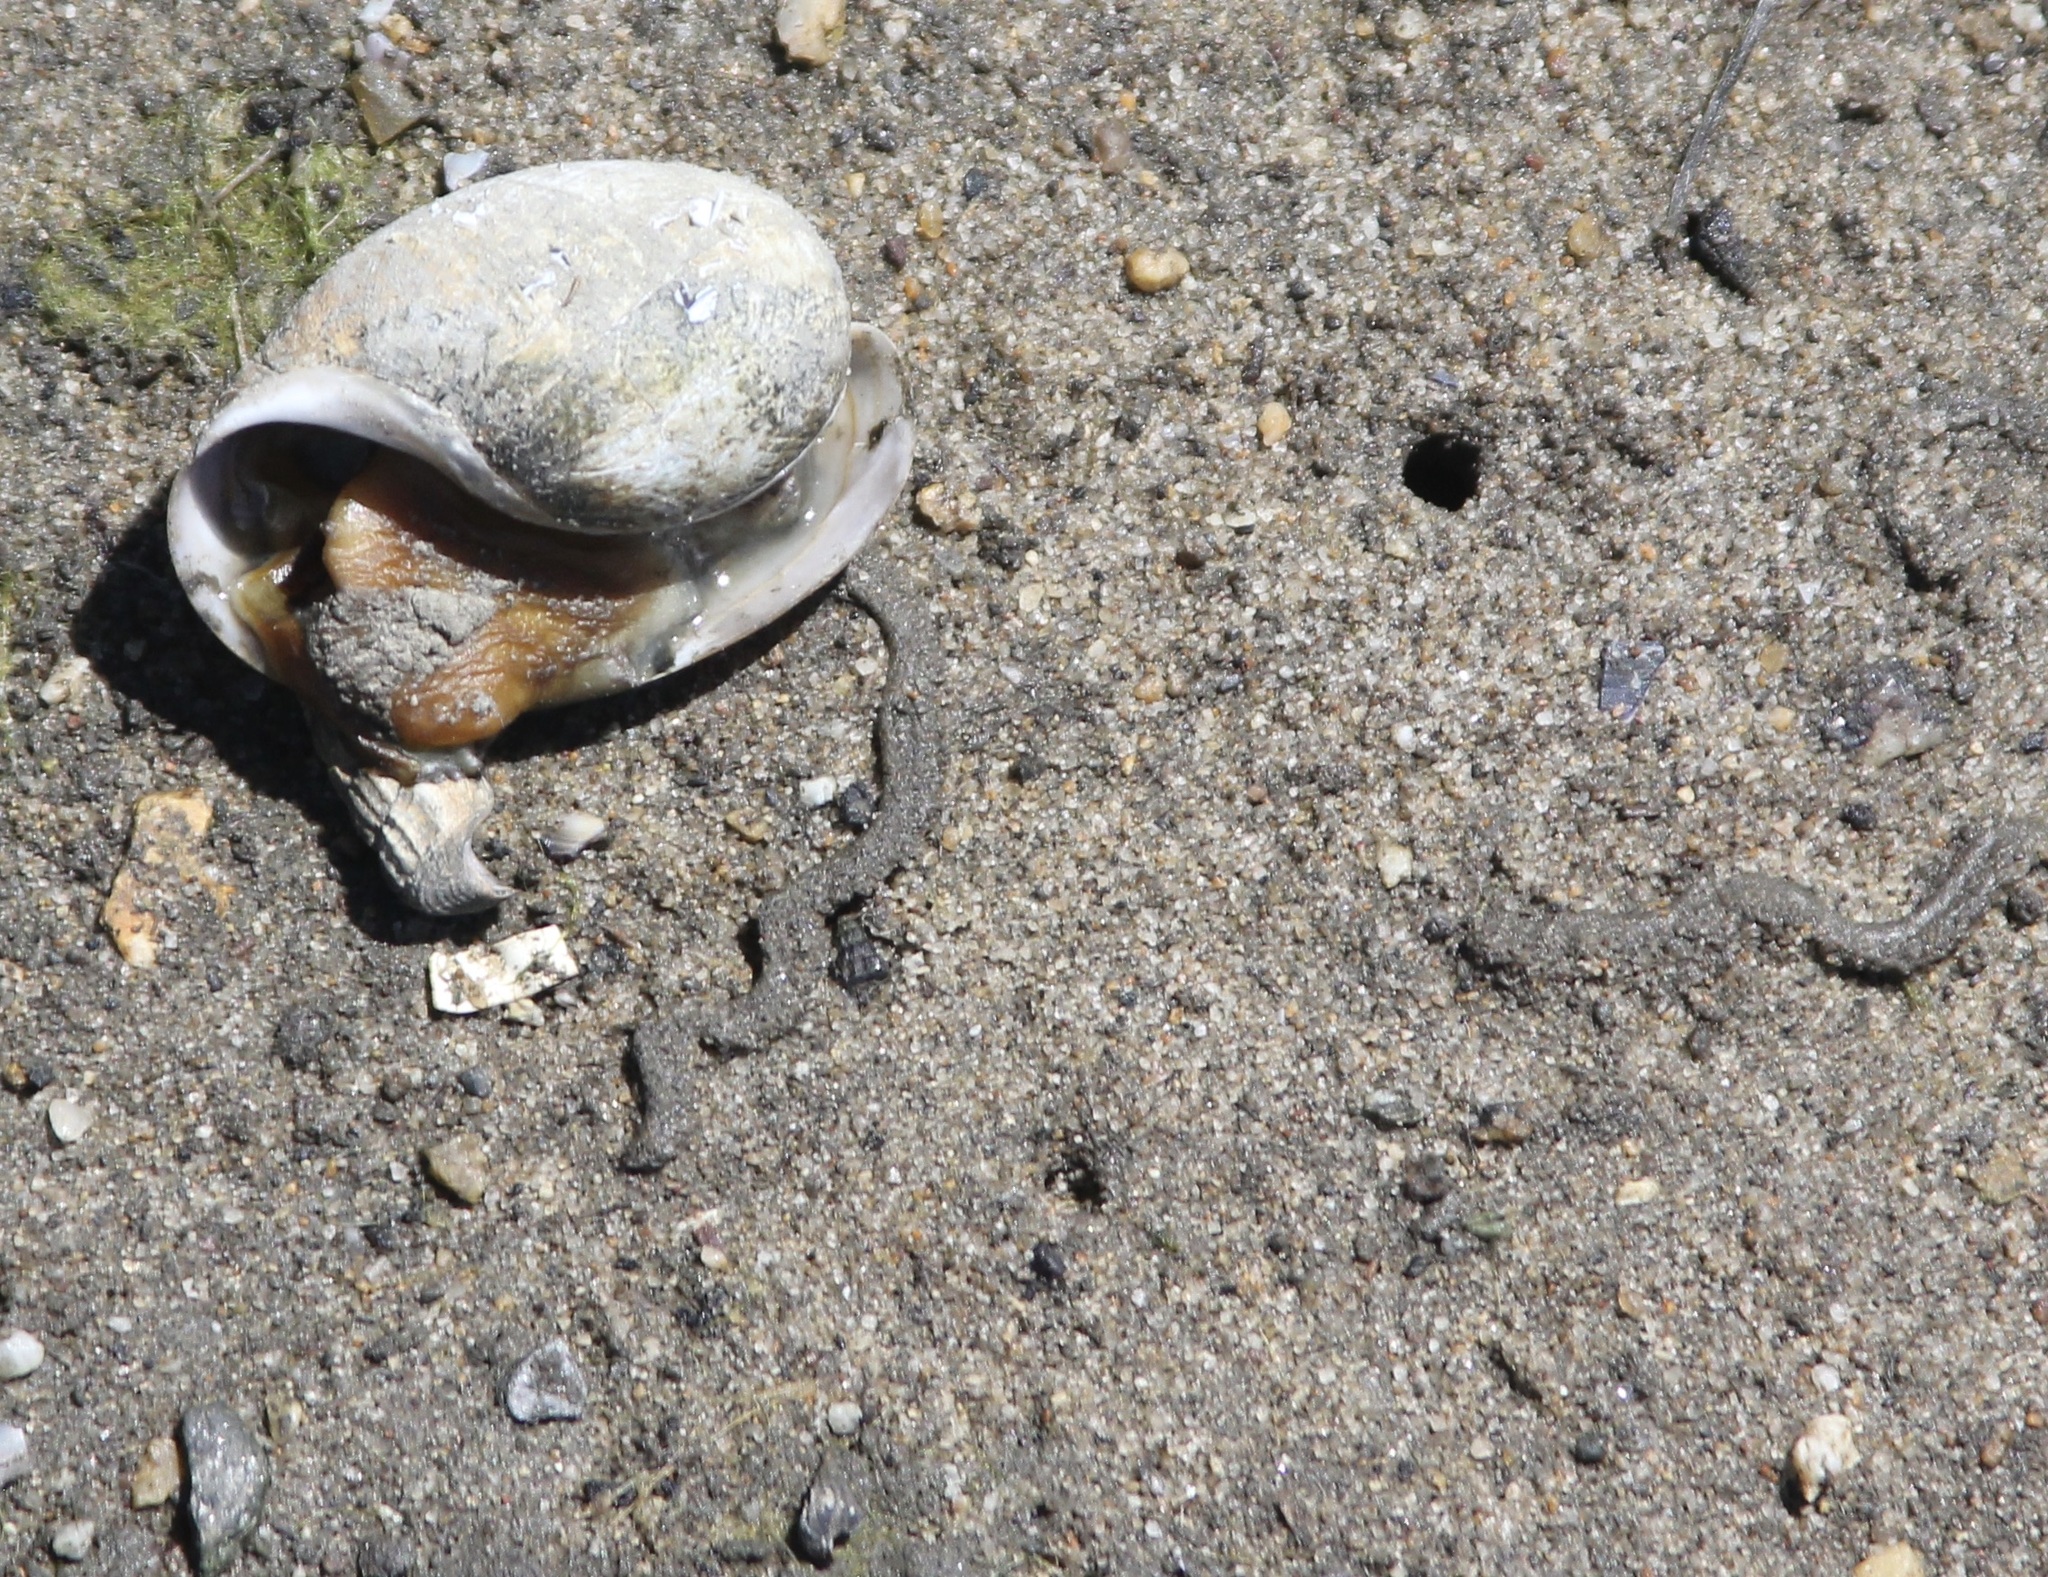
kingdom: Animalia
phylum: Mollusca
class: Gastropoda
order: Cephalaspidea
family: Bullidae
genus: Bulla
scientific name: Bulla gouldiana
